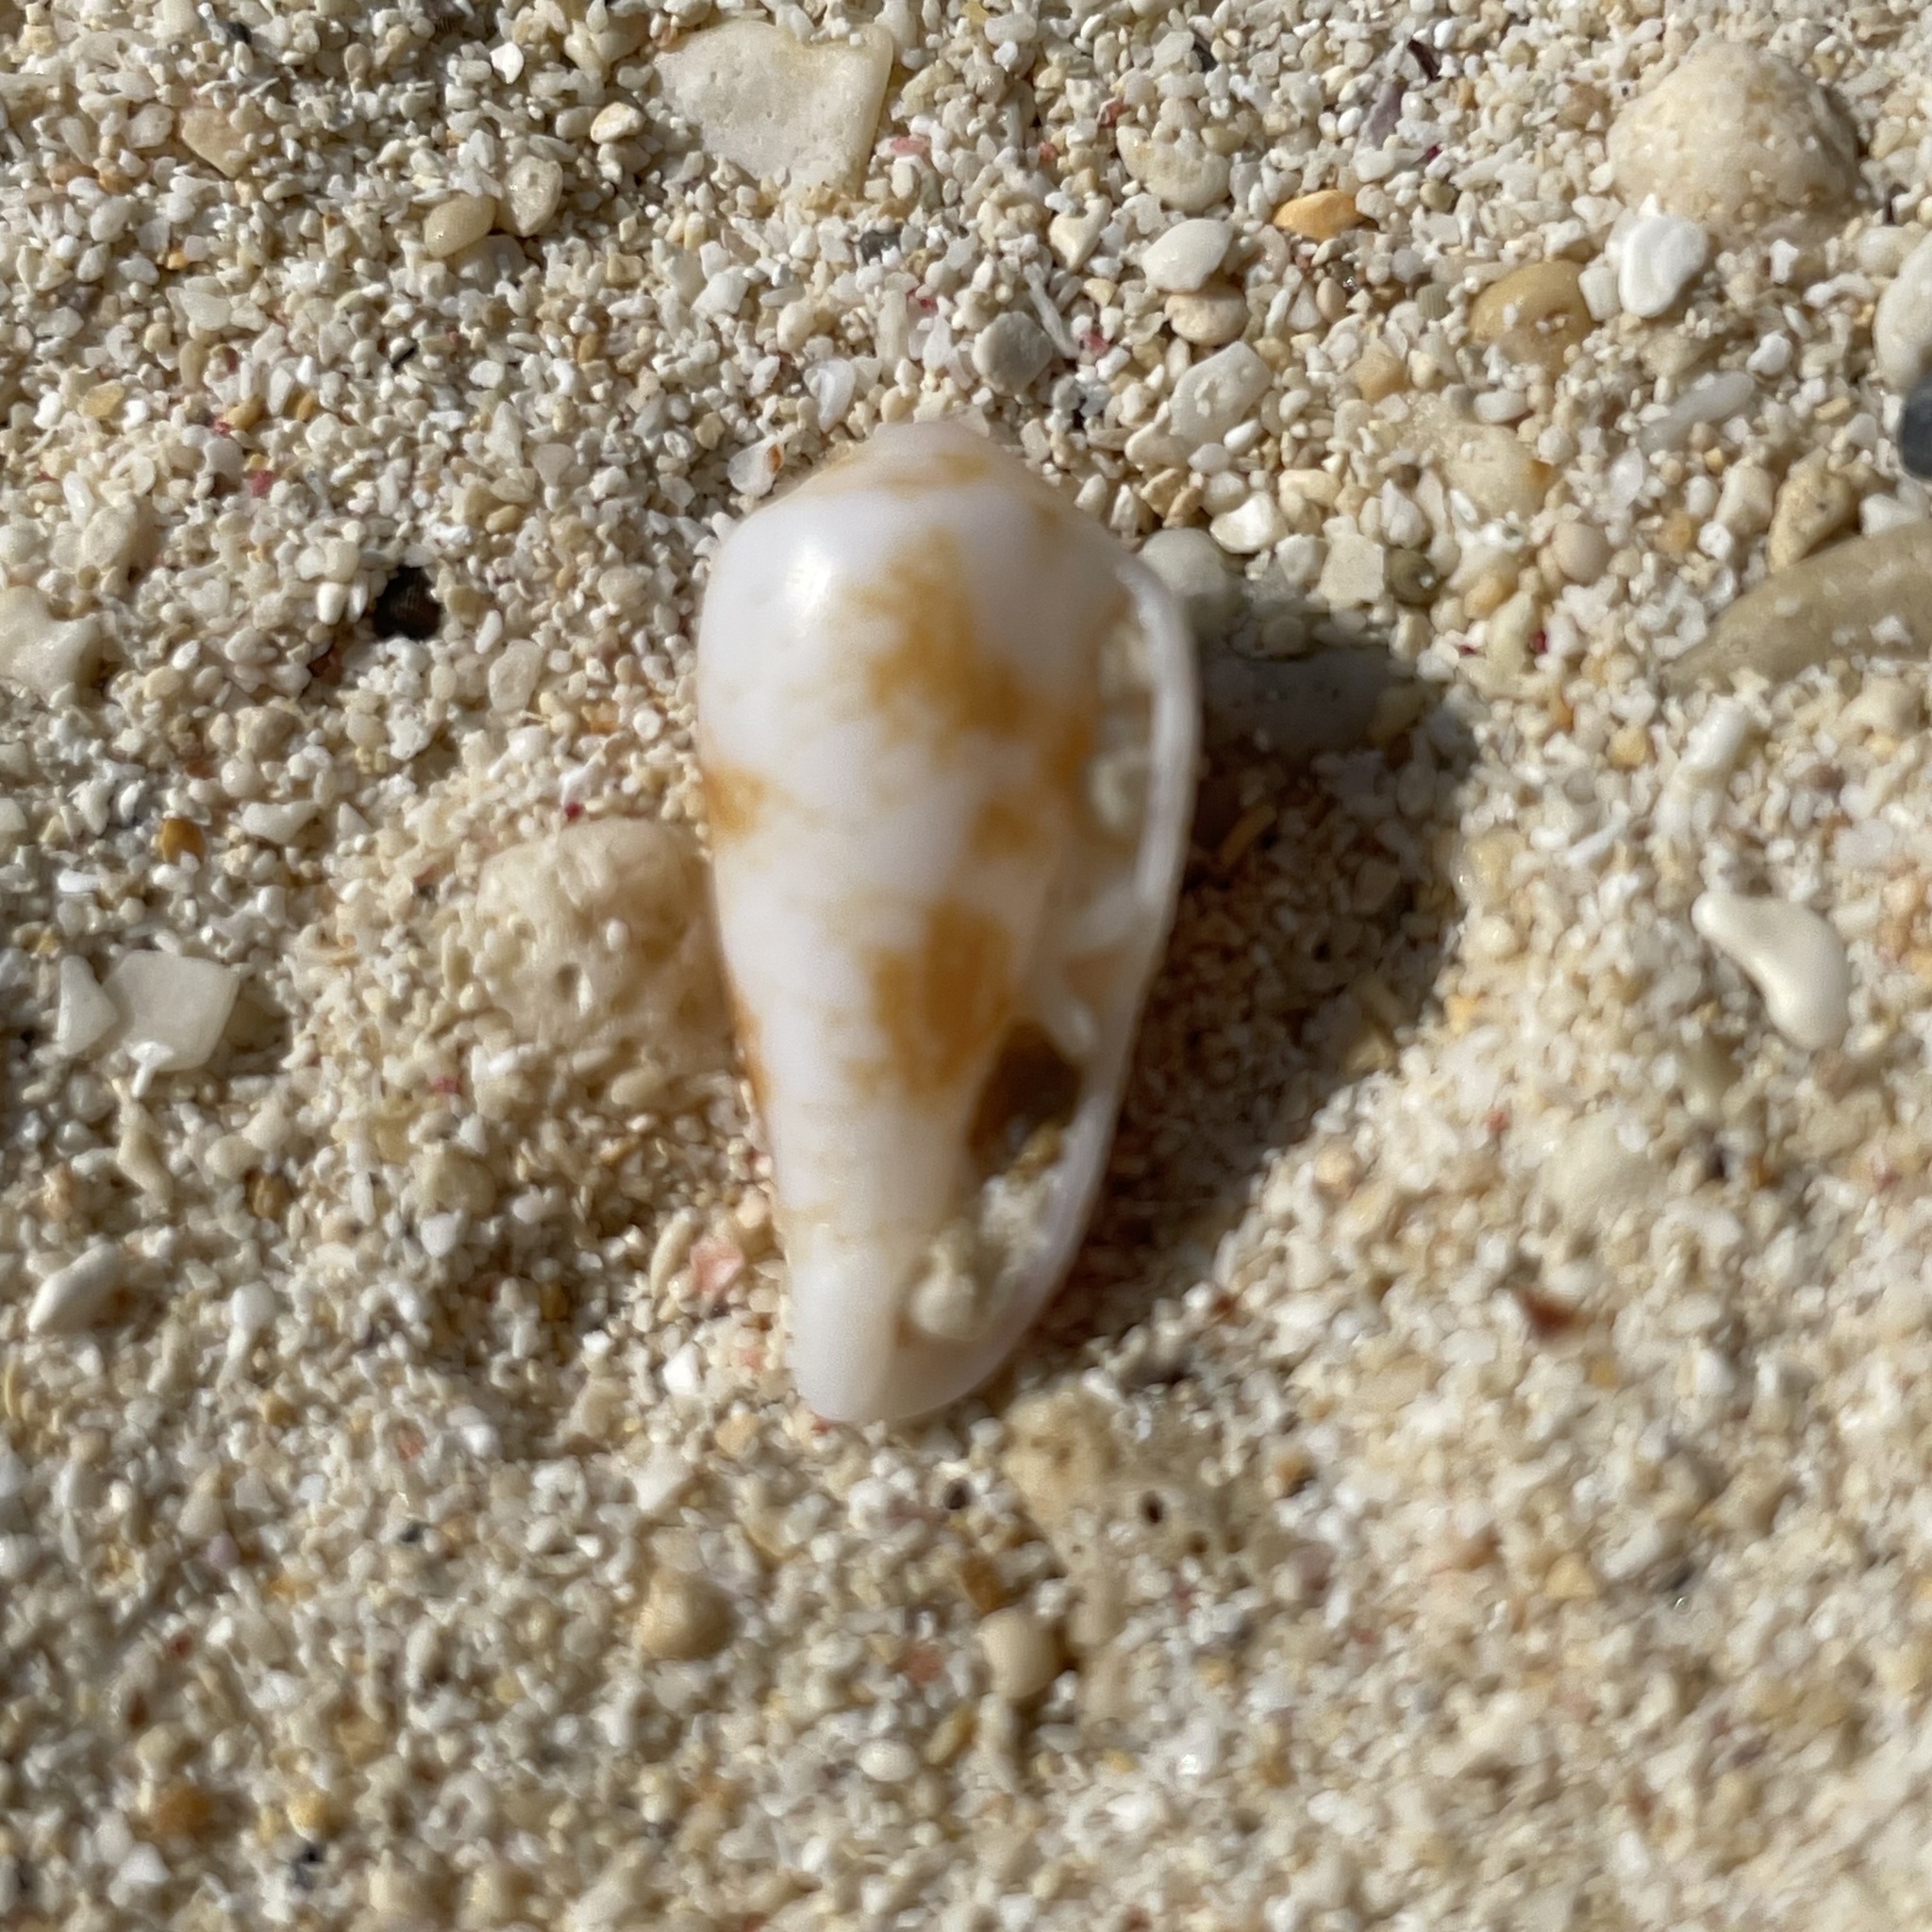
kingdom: Animalia
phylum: Mollusca
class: Gastropoda
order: Neogastropoda
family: Conidae
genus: Conus
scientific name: Conus omaria
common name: Omaria cone
